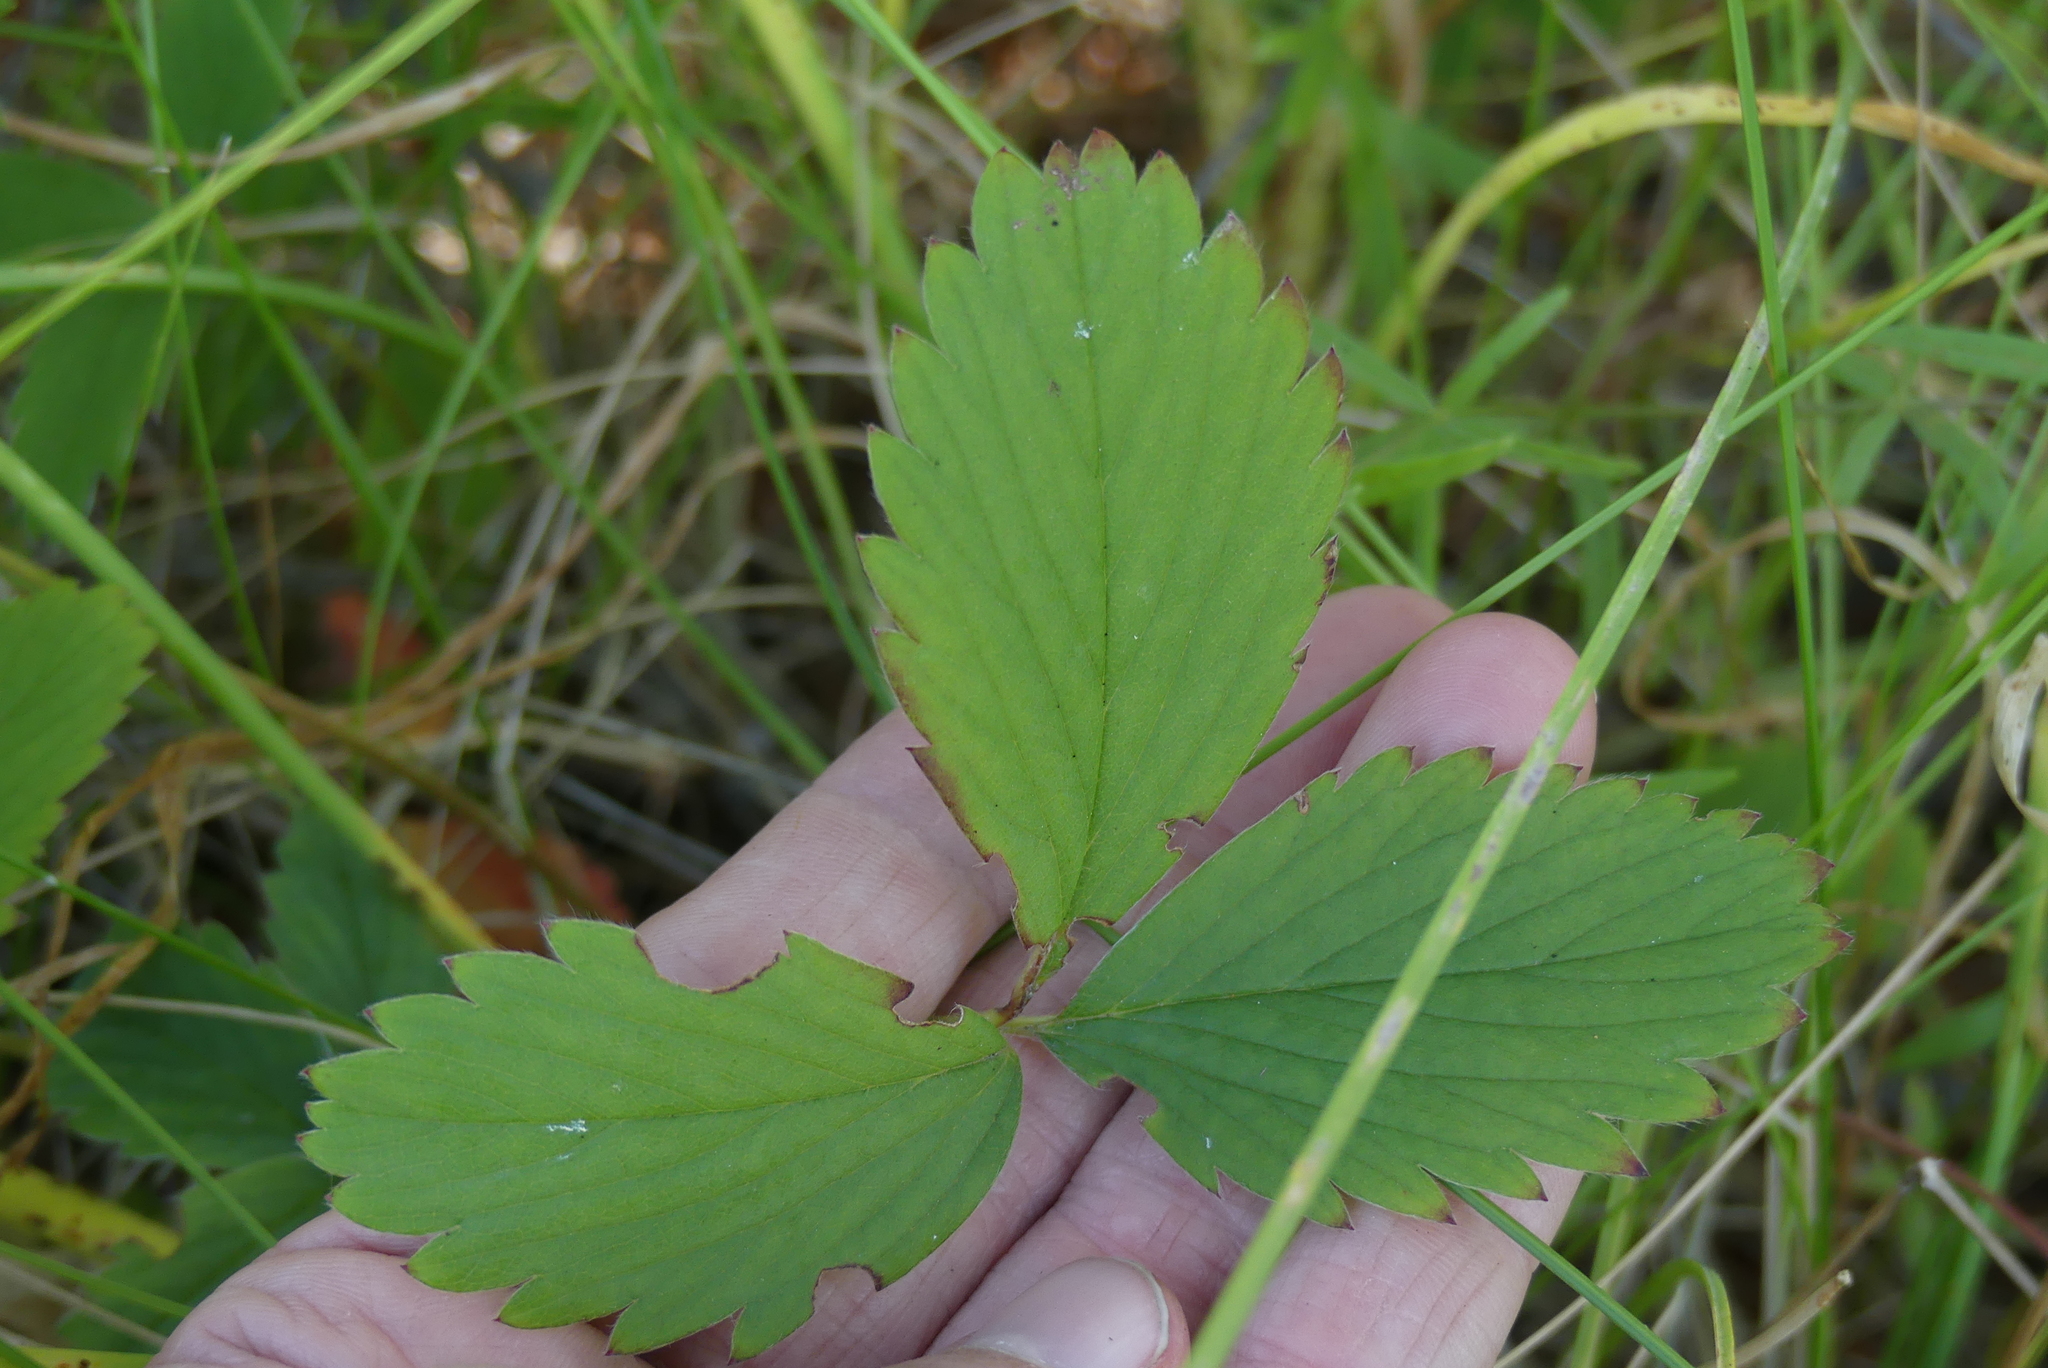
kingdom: Plantae
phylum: Tracheophyta
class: Magnoliopsida
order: Rosales
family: Rosaceae
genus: Fragaria
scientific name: Fragaria virginiana
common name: Thickleaved wild strawberry
